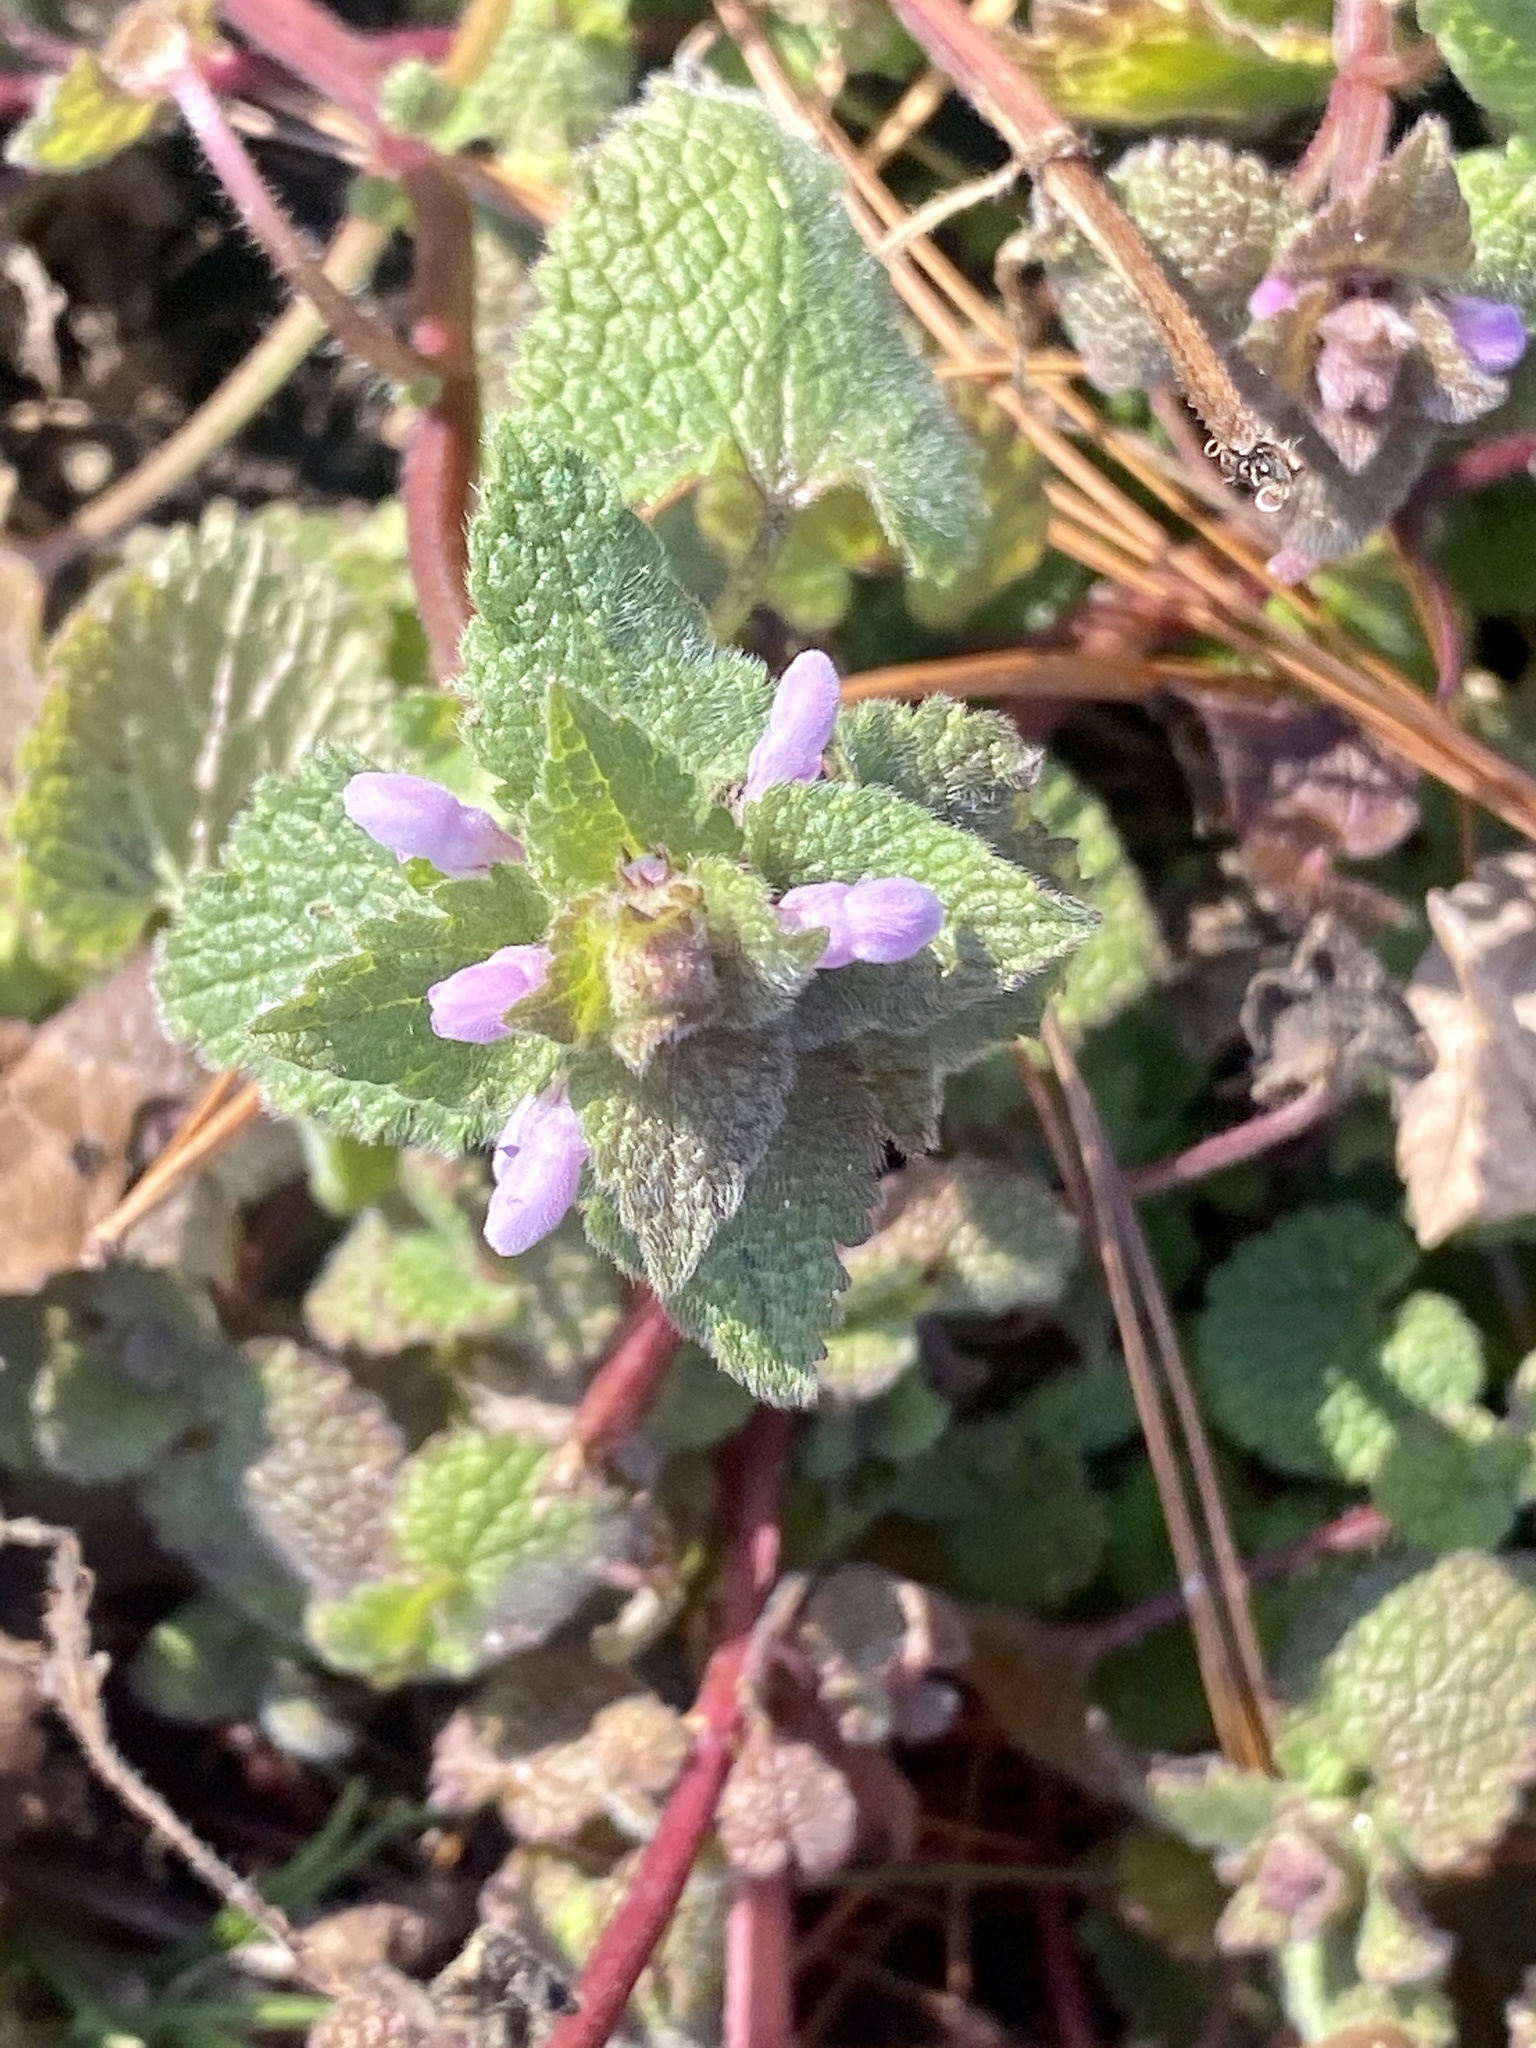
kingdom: Plantae
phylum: Tracheophyta
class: Magnoliopsida
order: Lamiales
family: Lamiaceae
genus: Lamium
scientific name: Lamium purpureum
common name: Red dead-nettle
